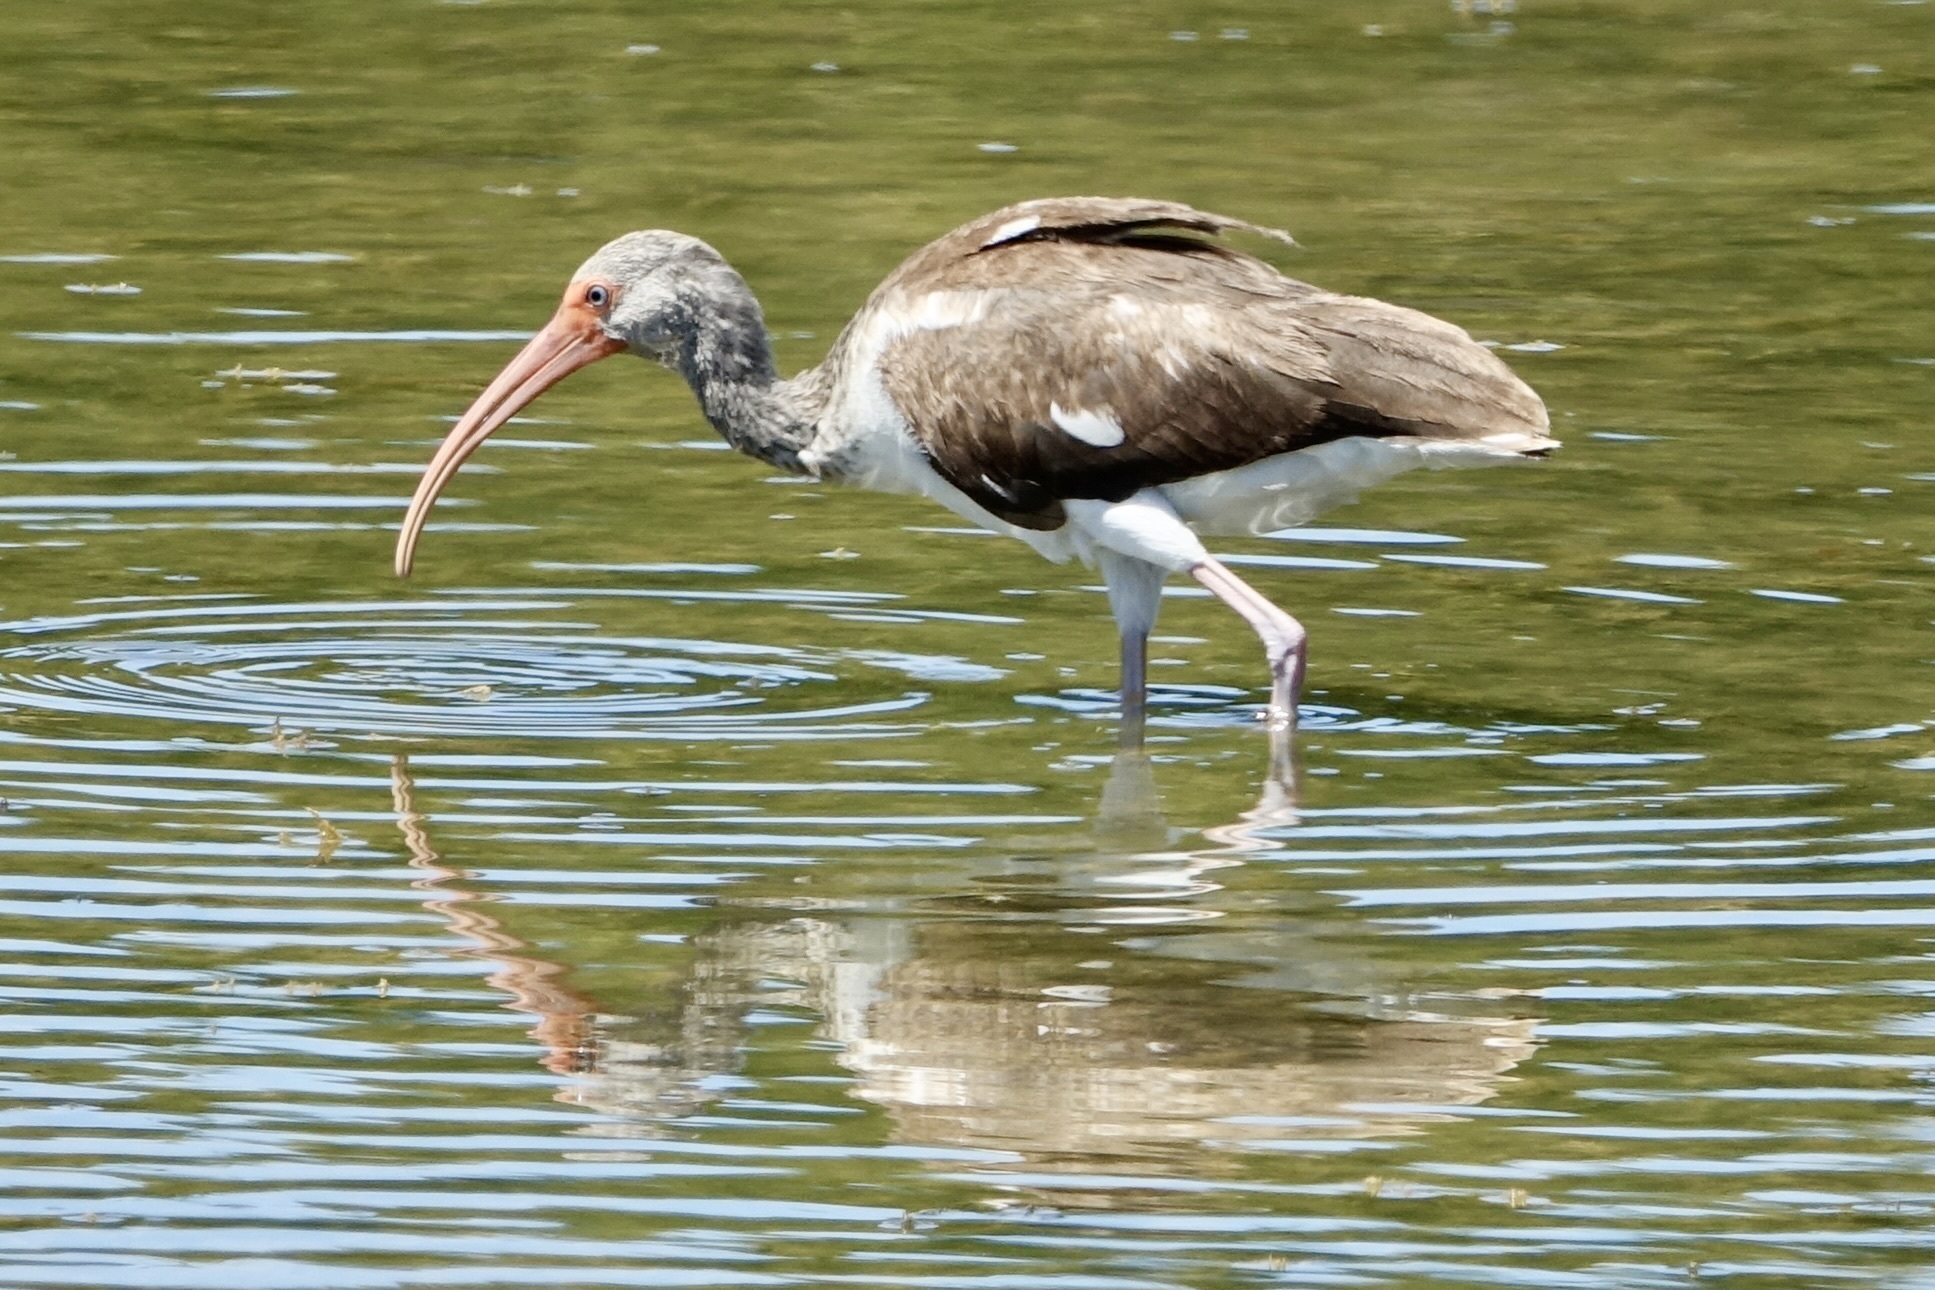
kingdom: Animalia
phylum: Chordata
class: Aves
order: Pelecaniformes
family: Threskiornithidae
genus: Eudocimus
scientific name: Eudocimus albus
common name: White ibis
